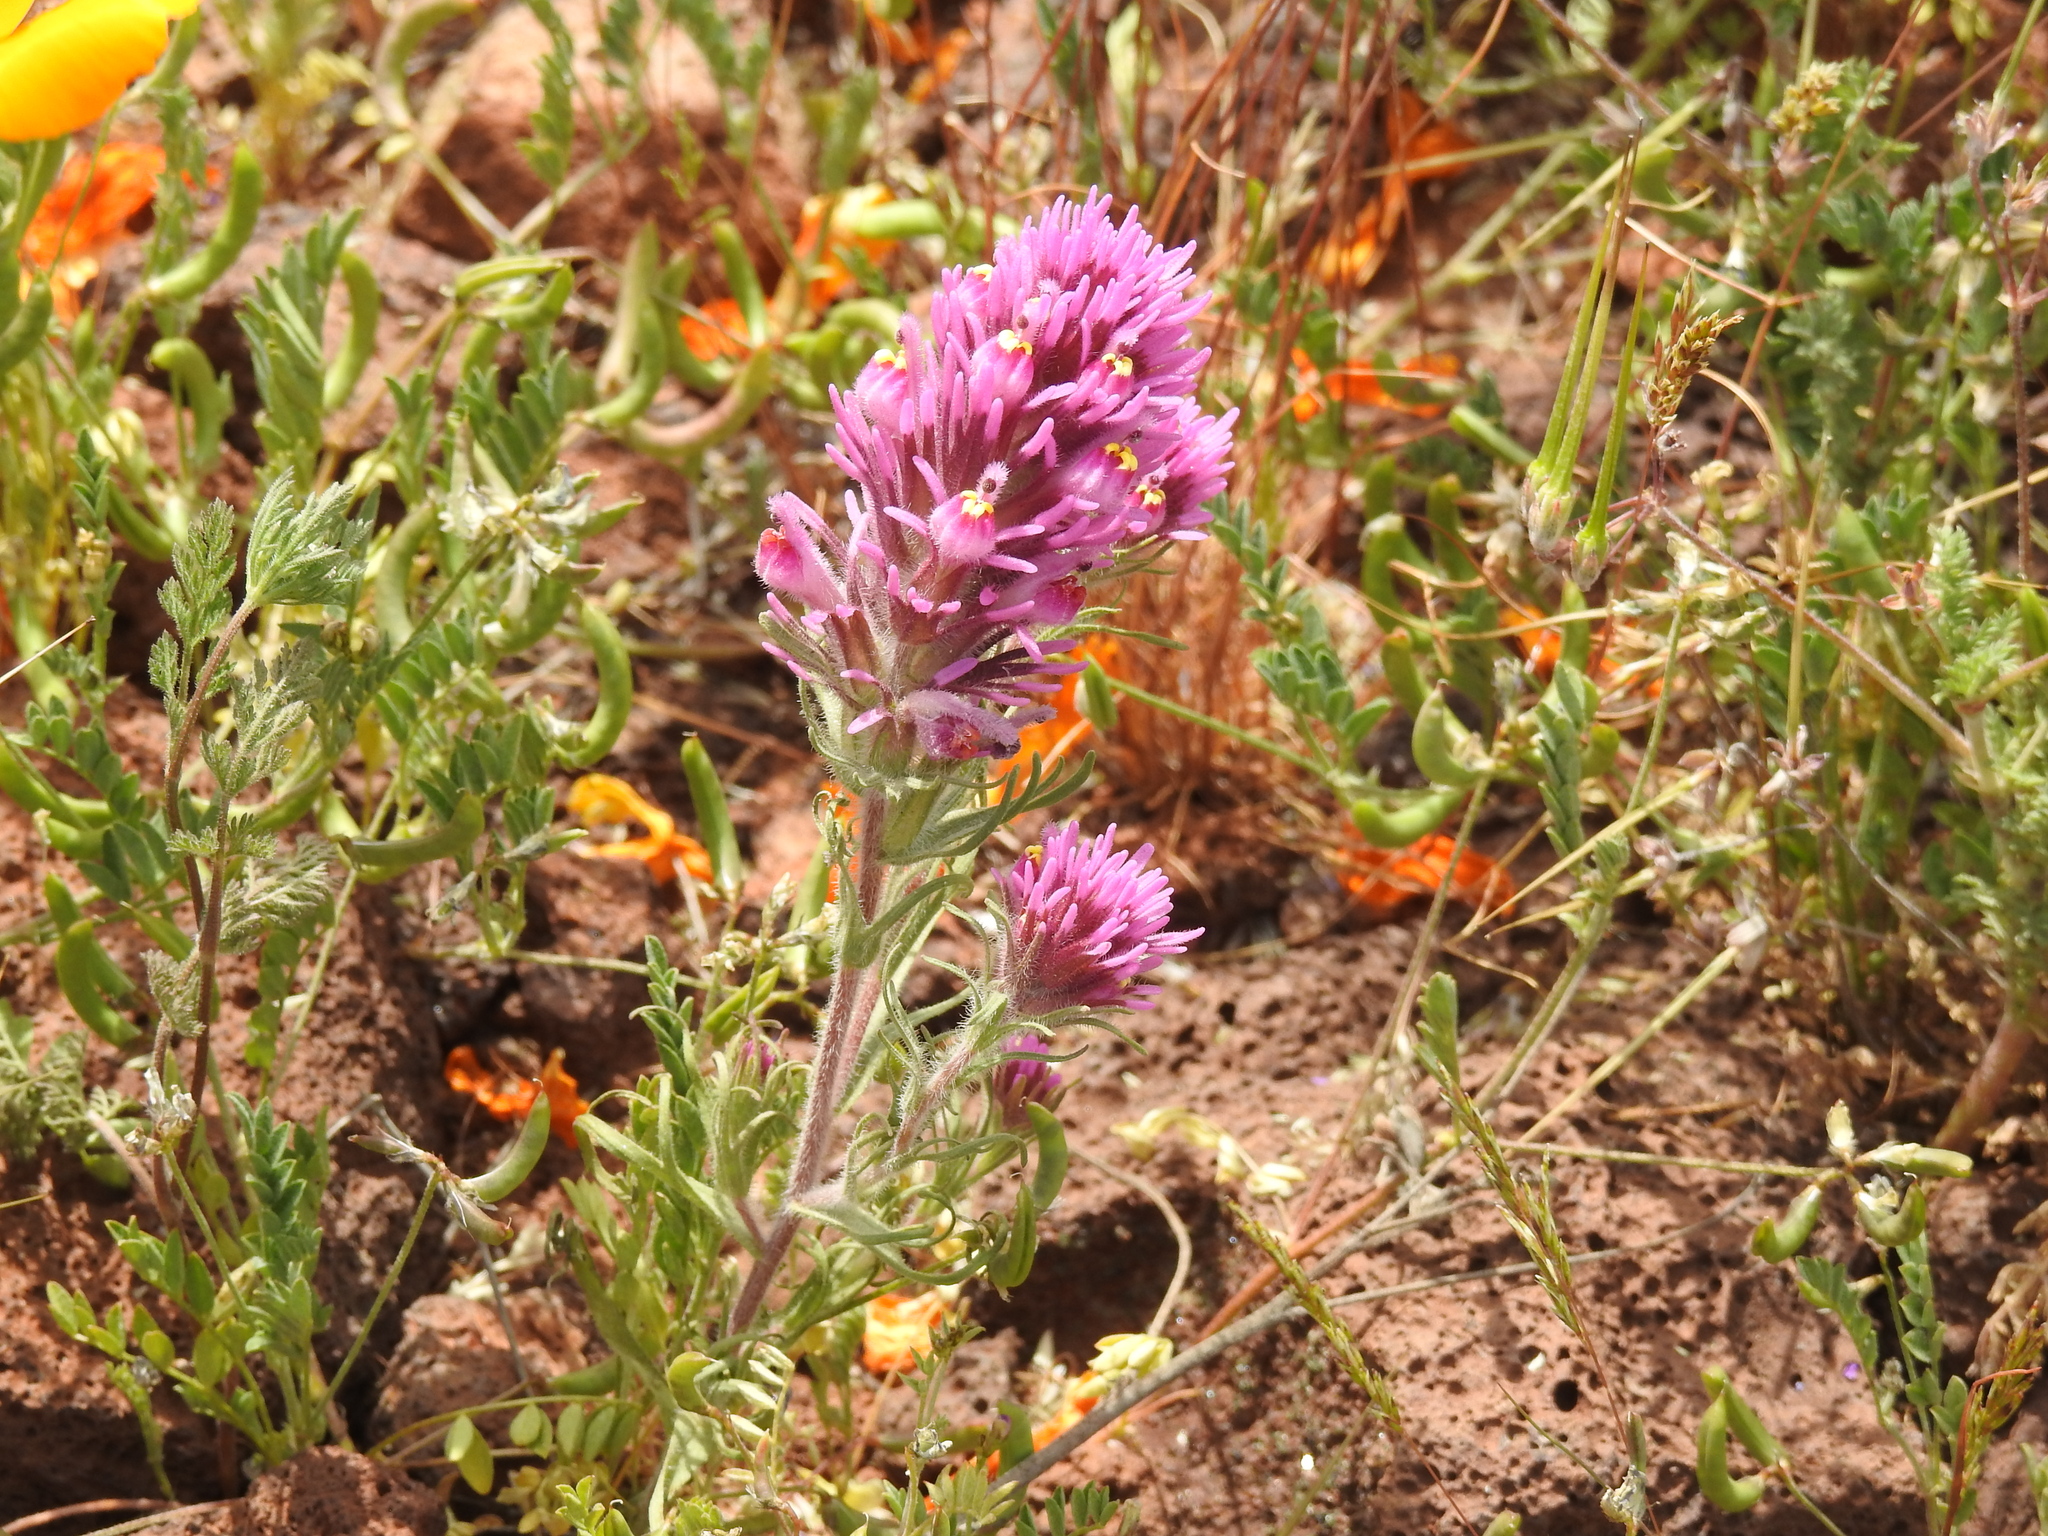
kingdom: Plantae
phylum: Tracheophyta
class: Magnoliopsida
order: Lamiales
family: Orobanchaceae
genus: Castilleja
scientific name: Castilleja exserta
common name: Purple owl-clover
